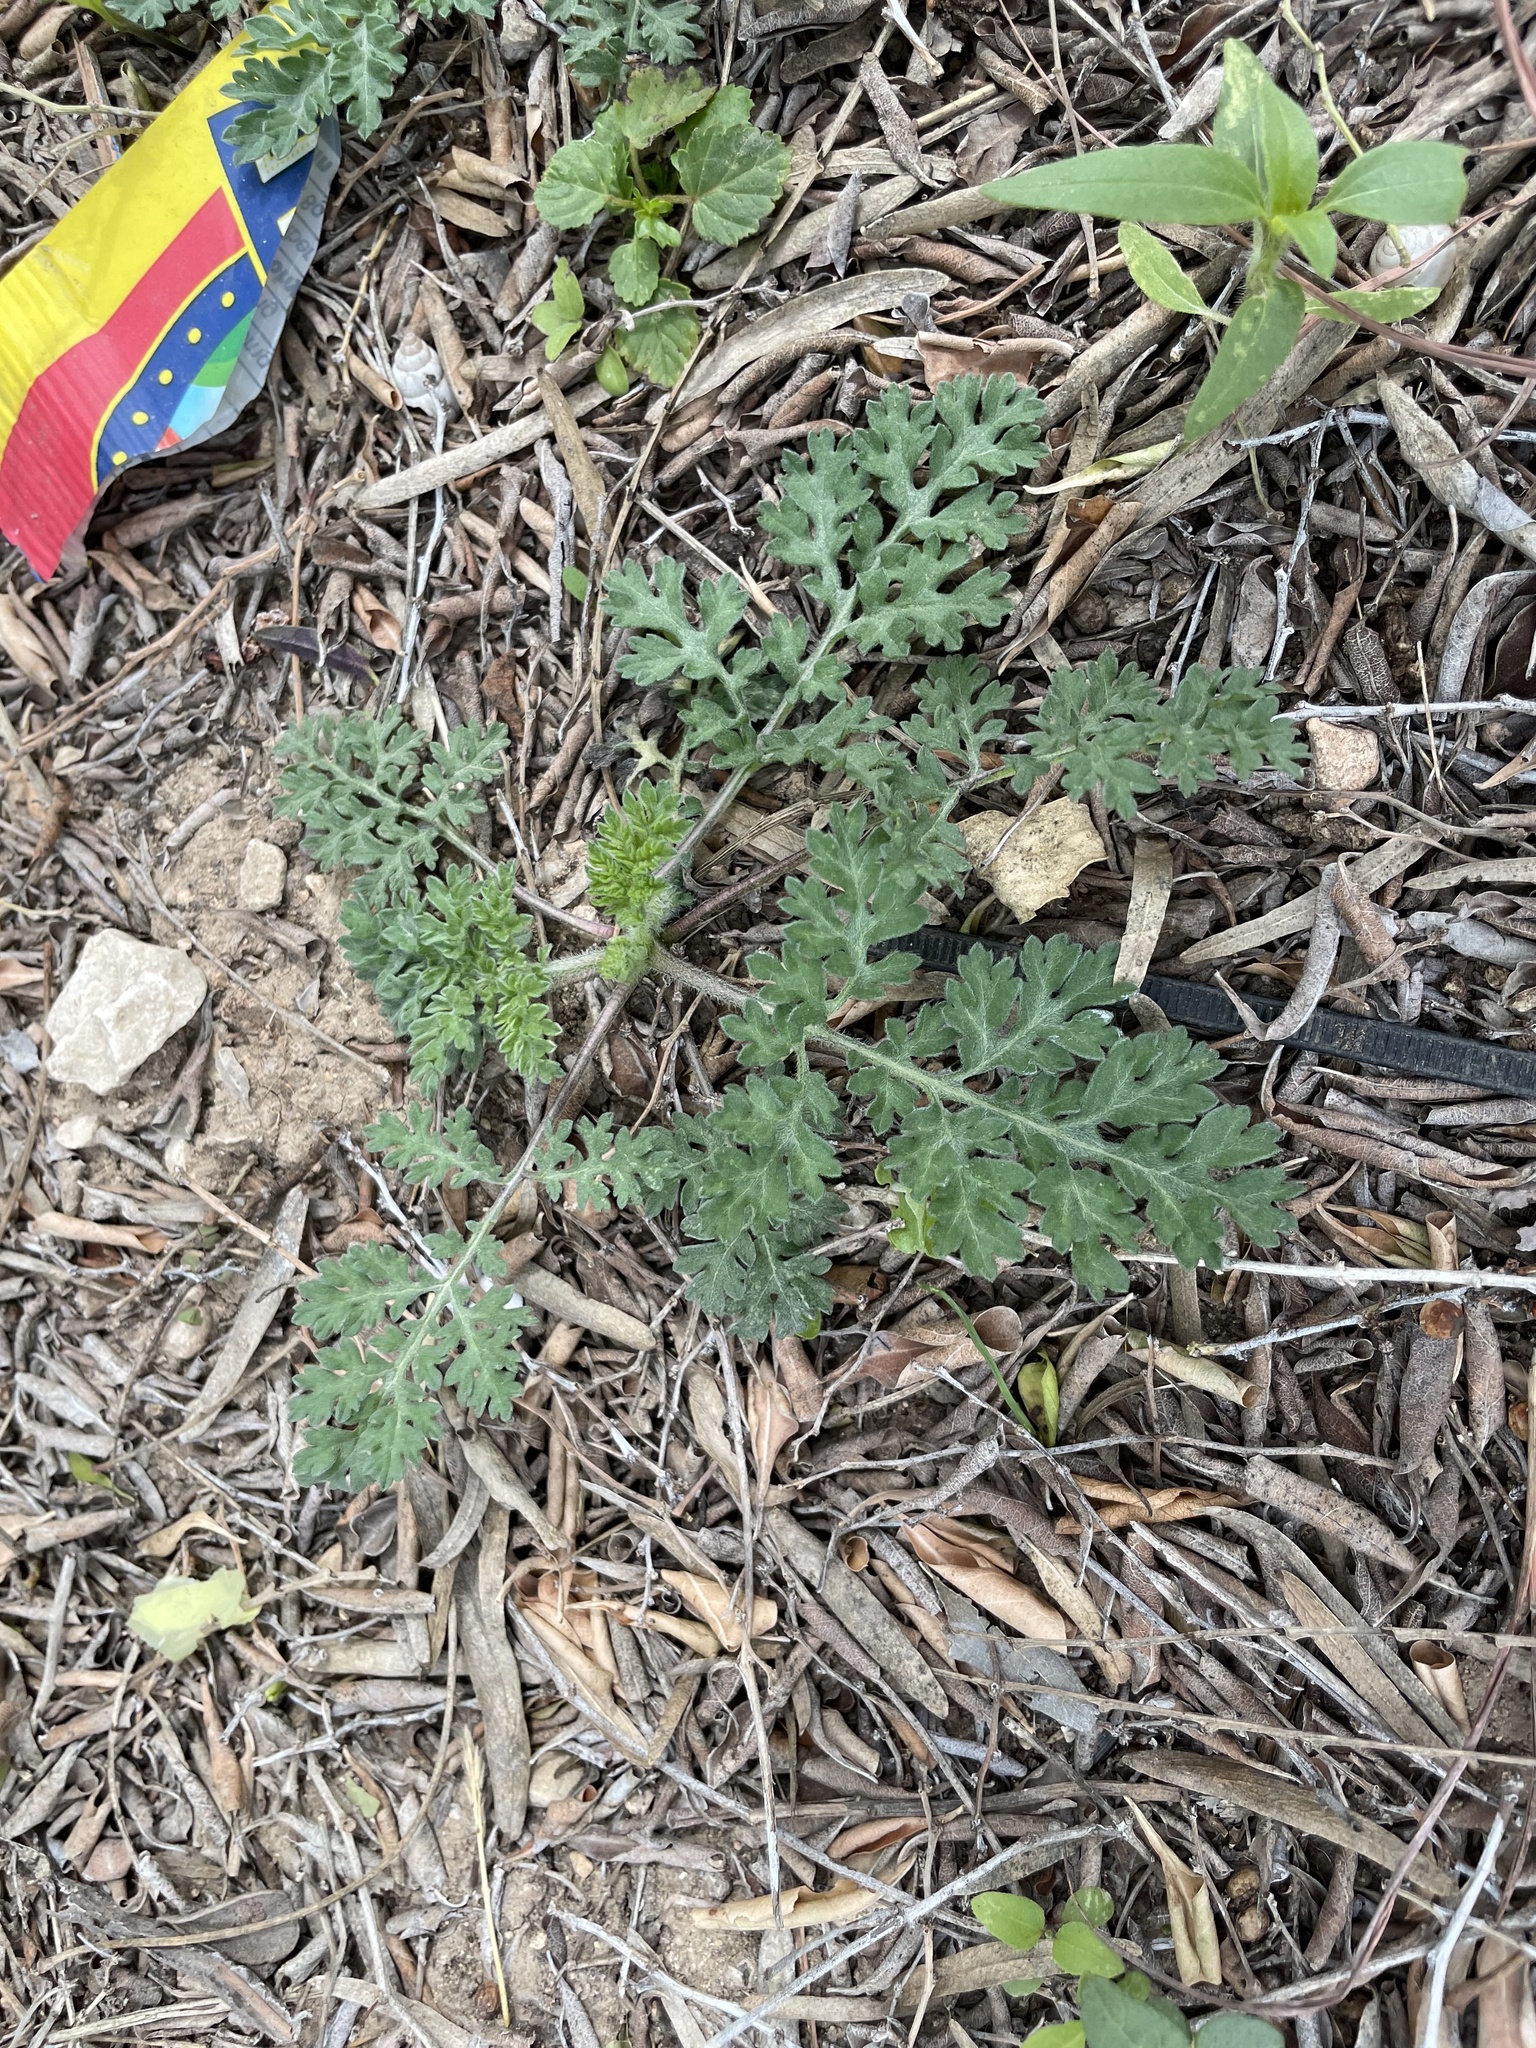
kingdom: Plantae
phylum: Tracheophyta
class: Magnoliopsida
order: Asterales
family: Asteraceae
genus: Ambrosia
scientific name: Ambrosia psilostachya
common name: Perennial ragweed
